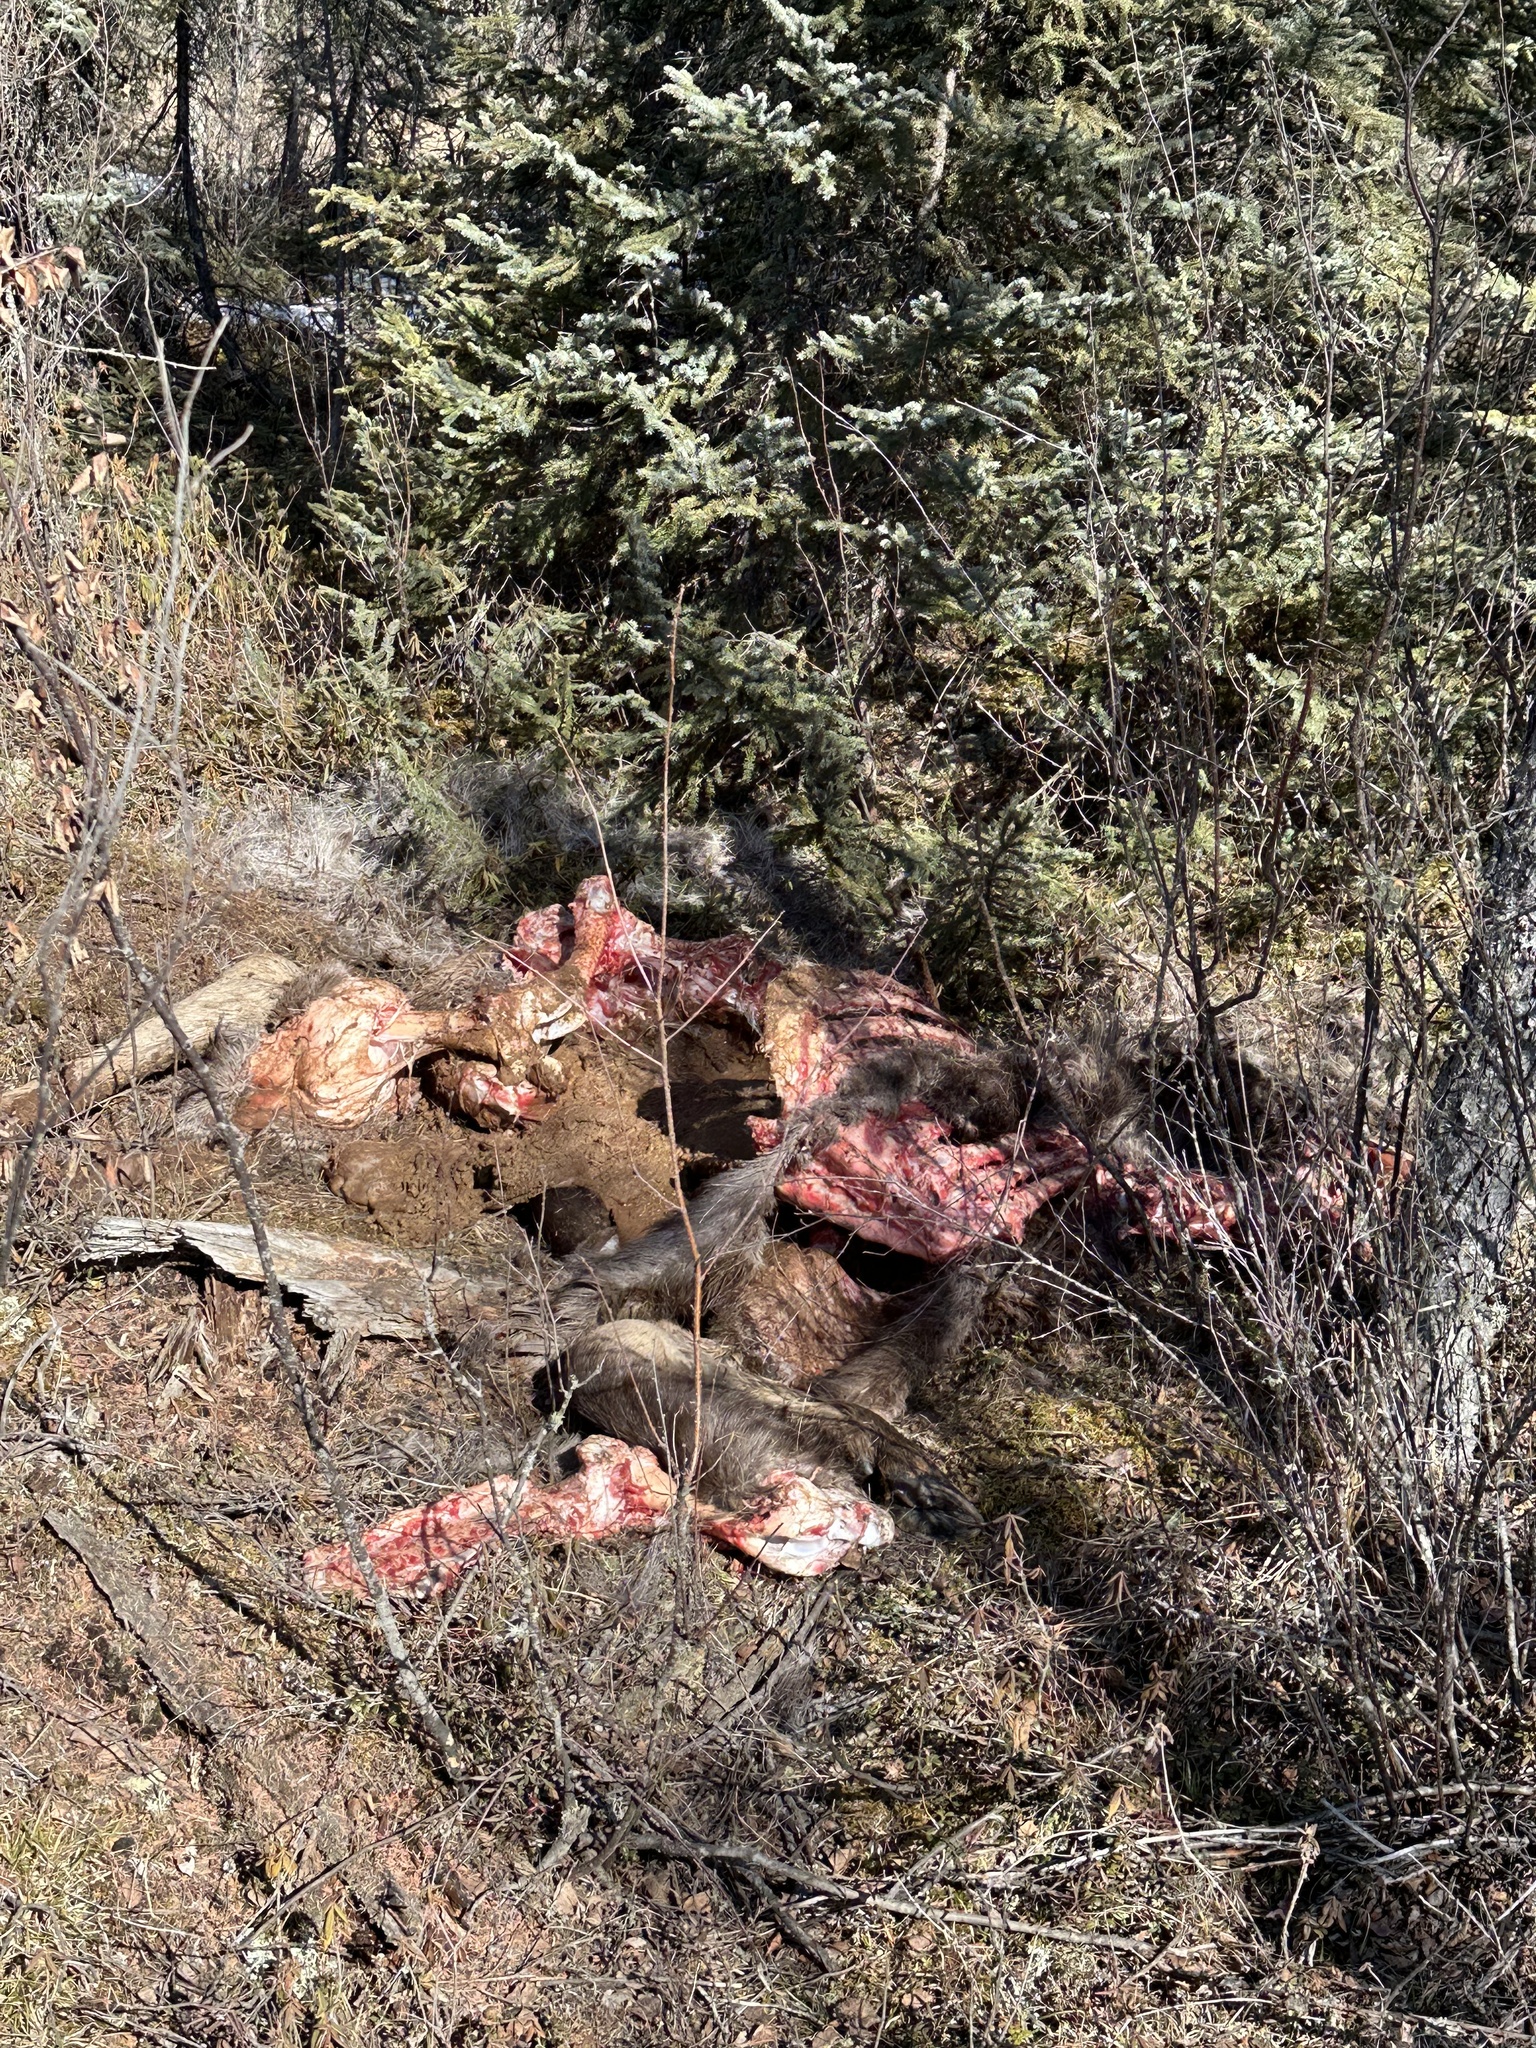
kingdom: Animalia
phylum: Chordata
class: Mammalia
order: Artiodactyla
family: Cervidae
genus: Alces
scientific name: Alces alces
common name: Moose
